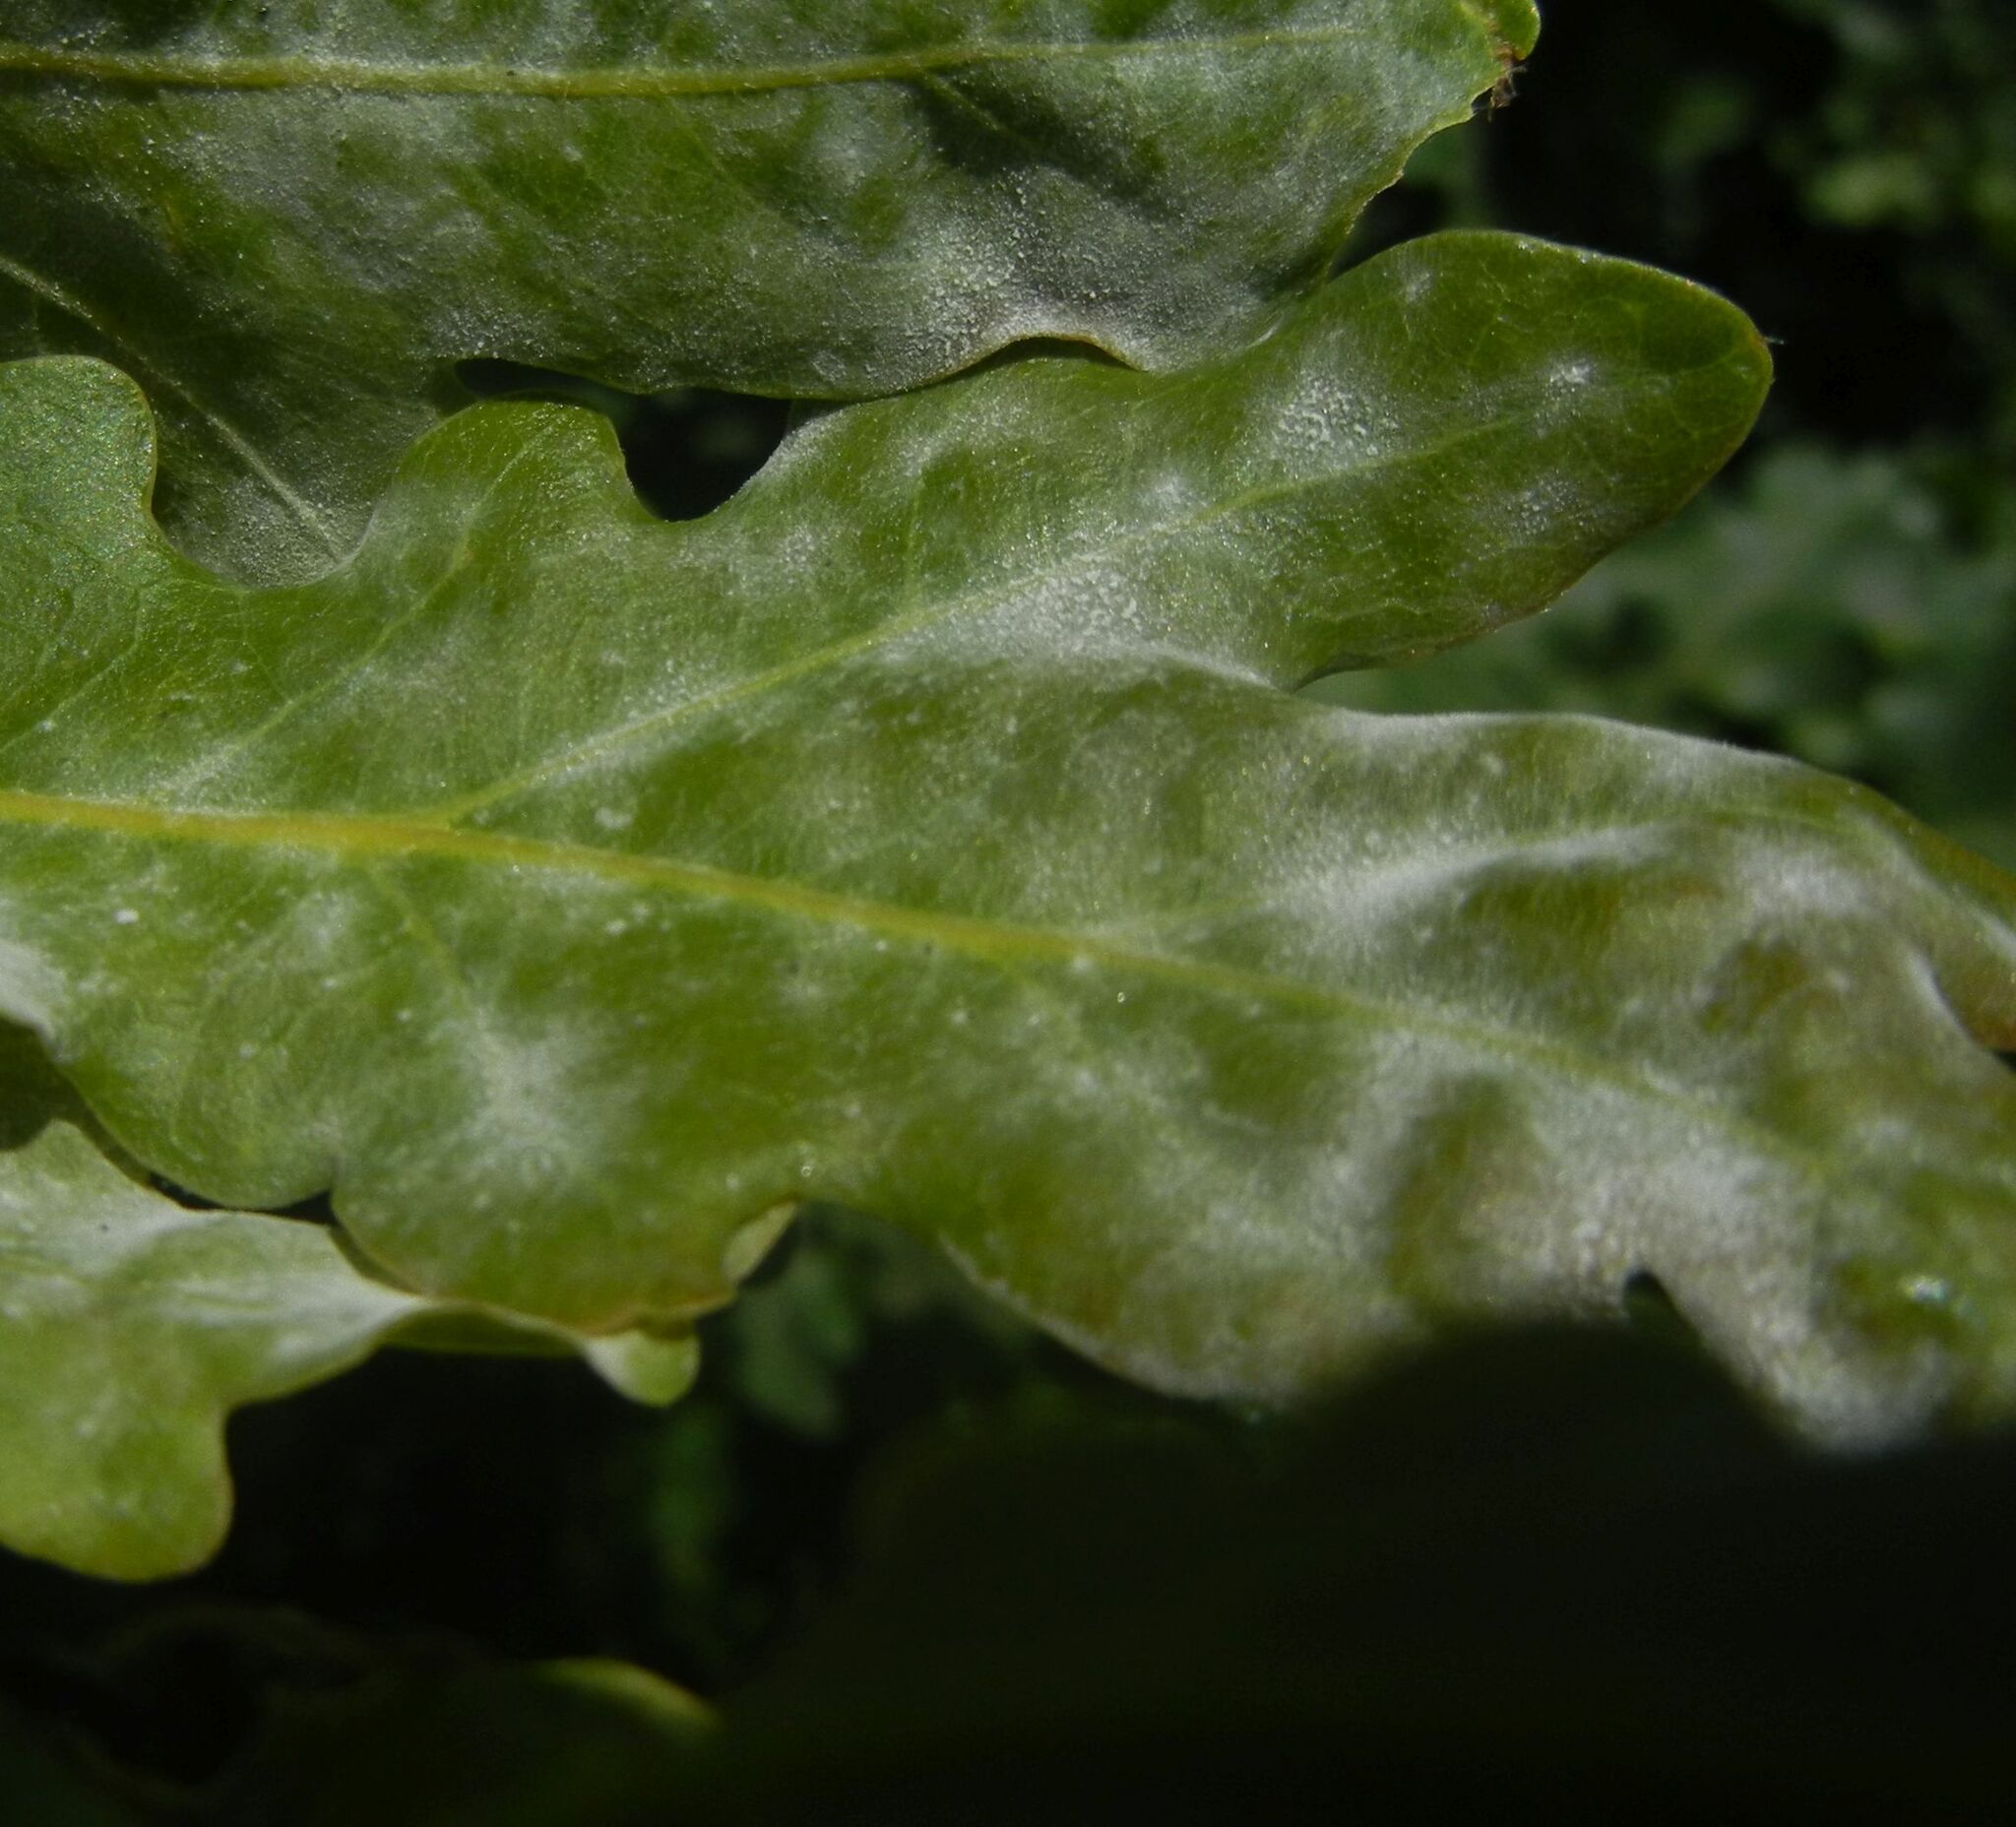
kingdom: Fungi
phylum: Ascomycota
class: Leotiomycetes
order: Helotiales
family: Erysiphaceae
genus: Erysiphe
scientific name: Erysiphe alphitoides
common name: Oak mildew
